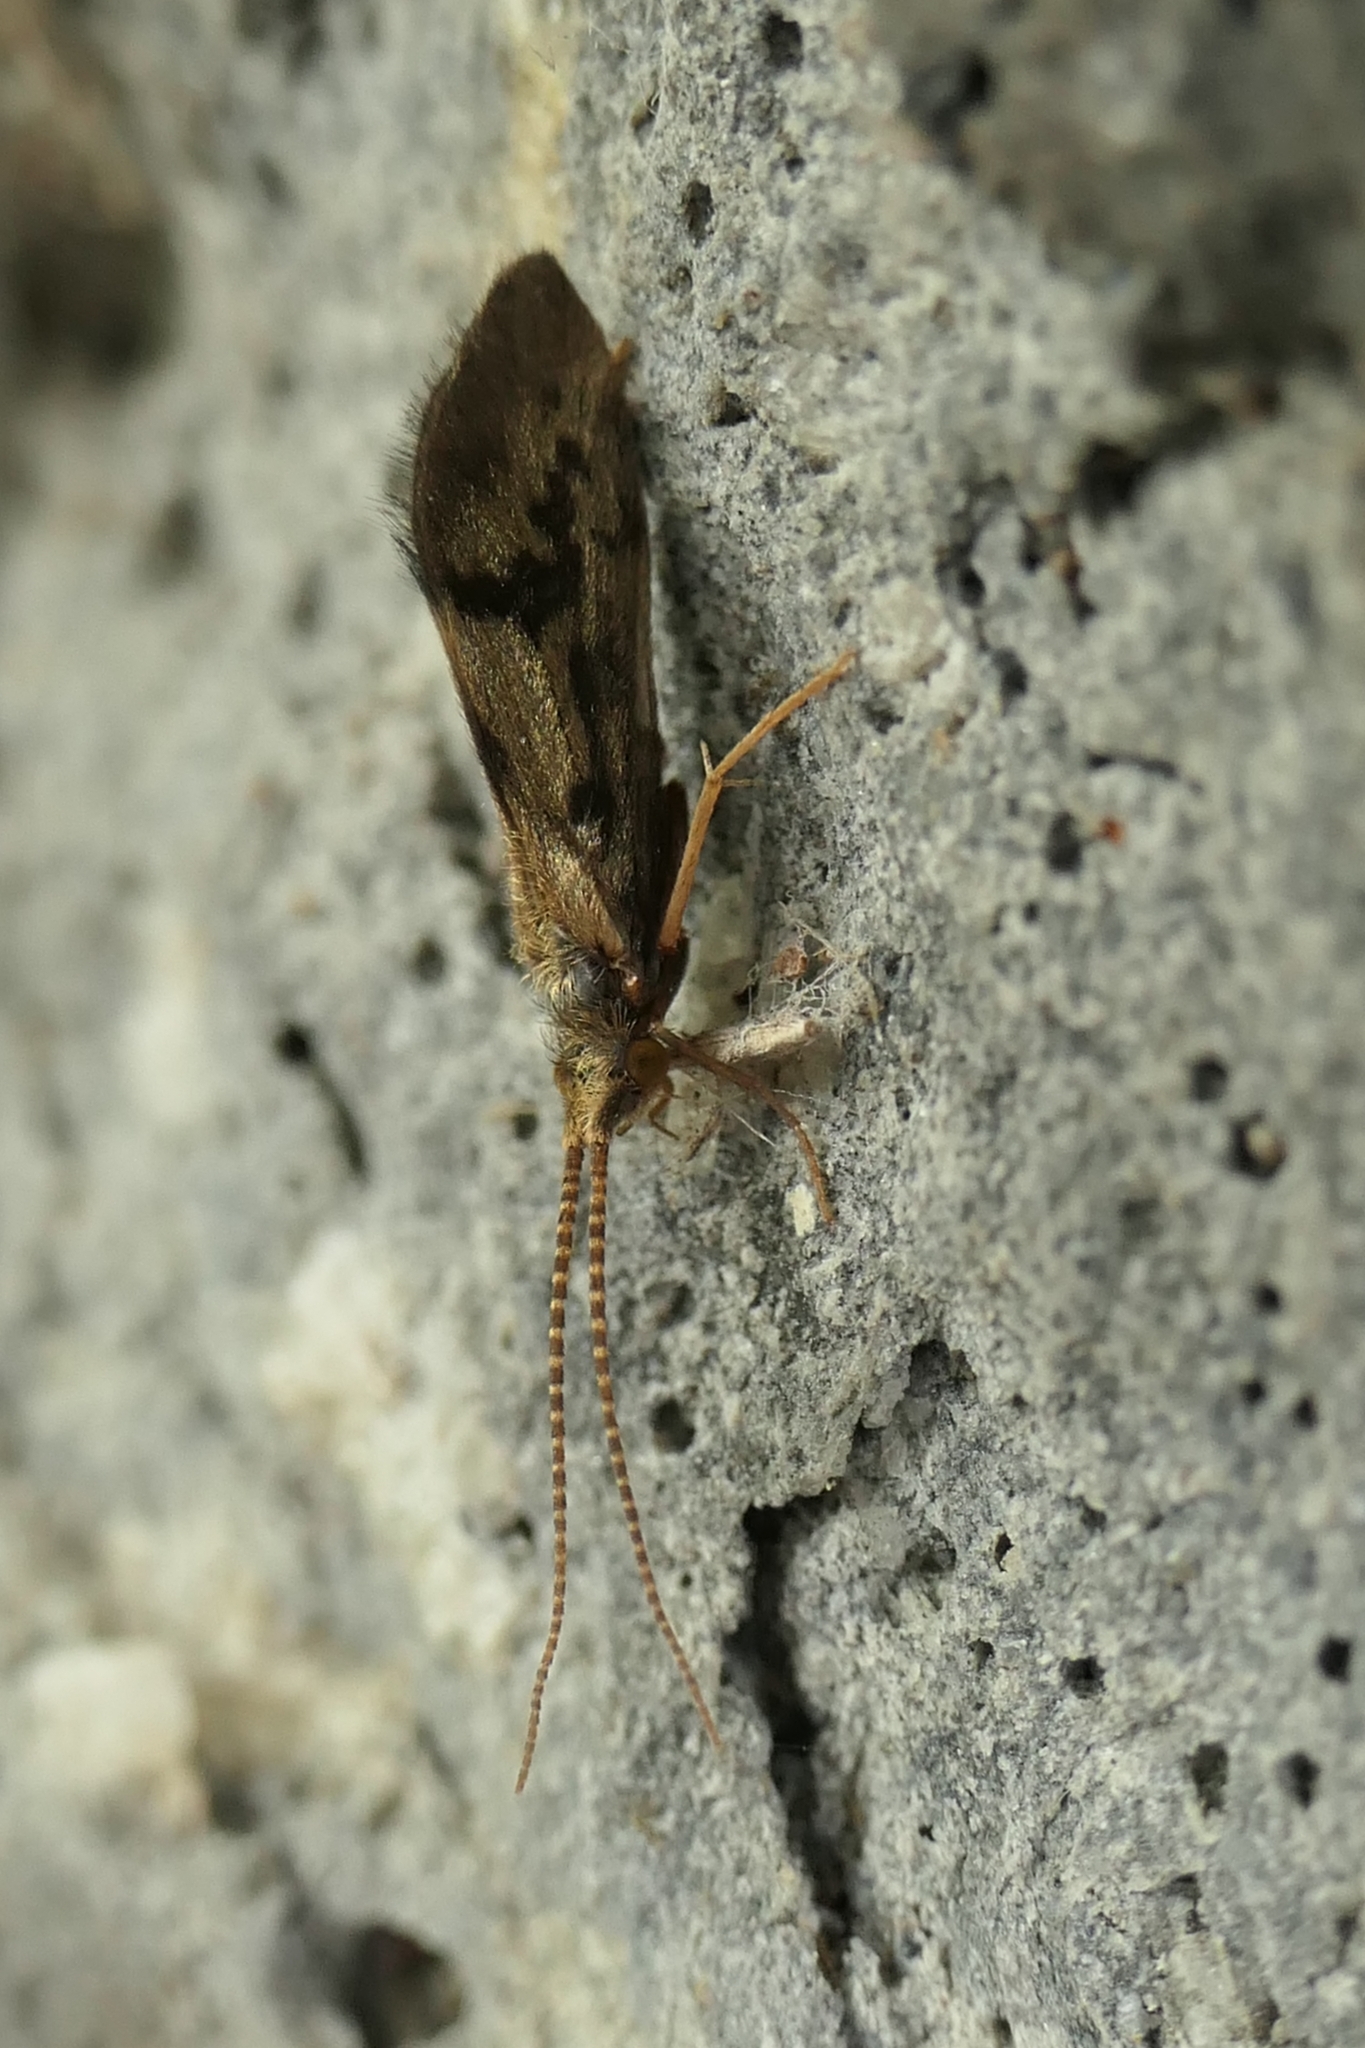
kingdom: Animalia
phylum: Arthropoda
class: Insecta
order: Trichoptera
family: Conoesucidae
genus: Pycnocentrodes
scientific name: Pycnocentrodes aeris
